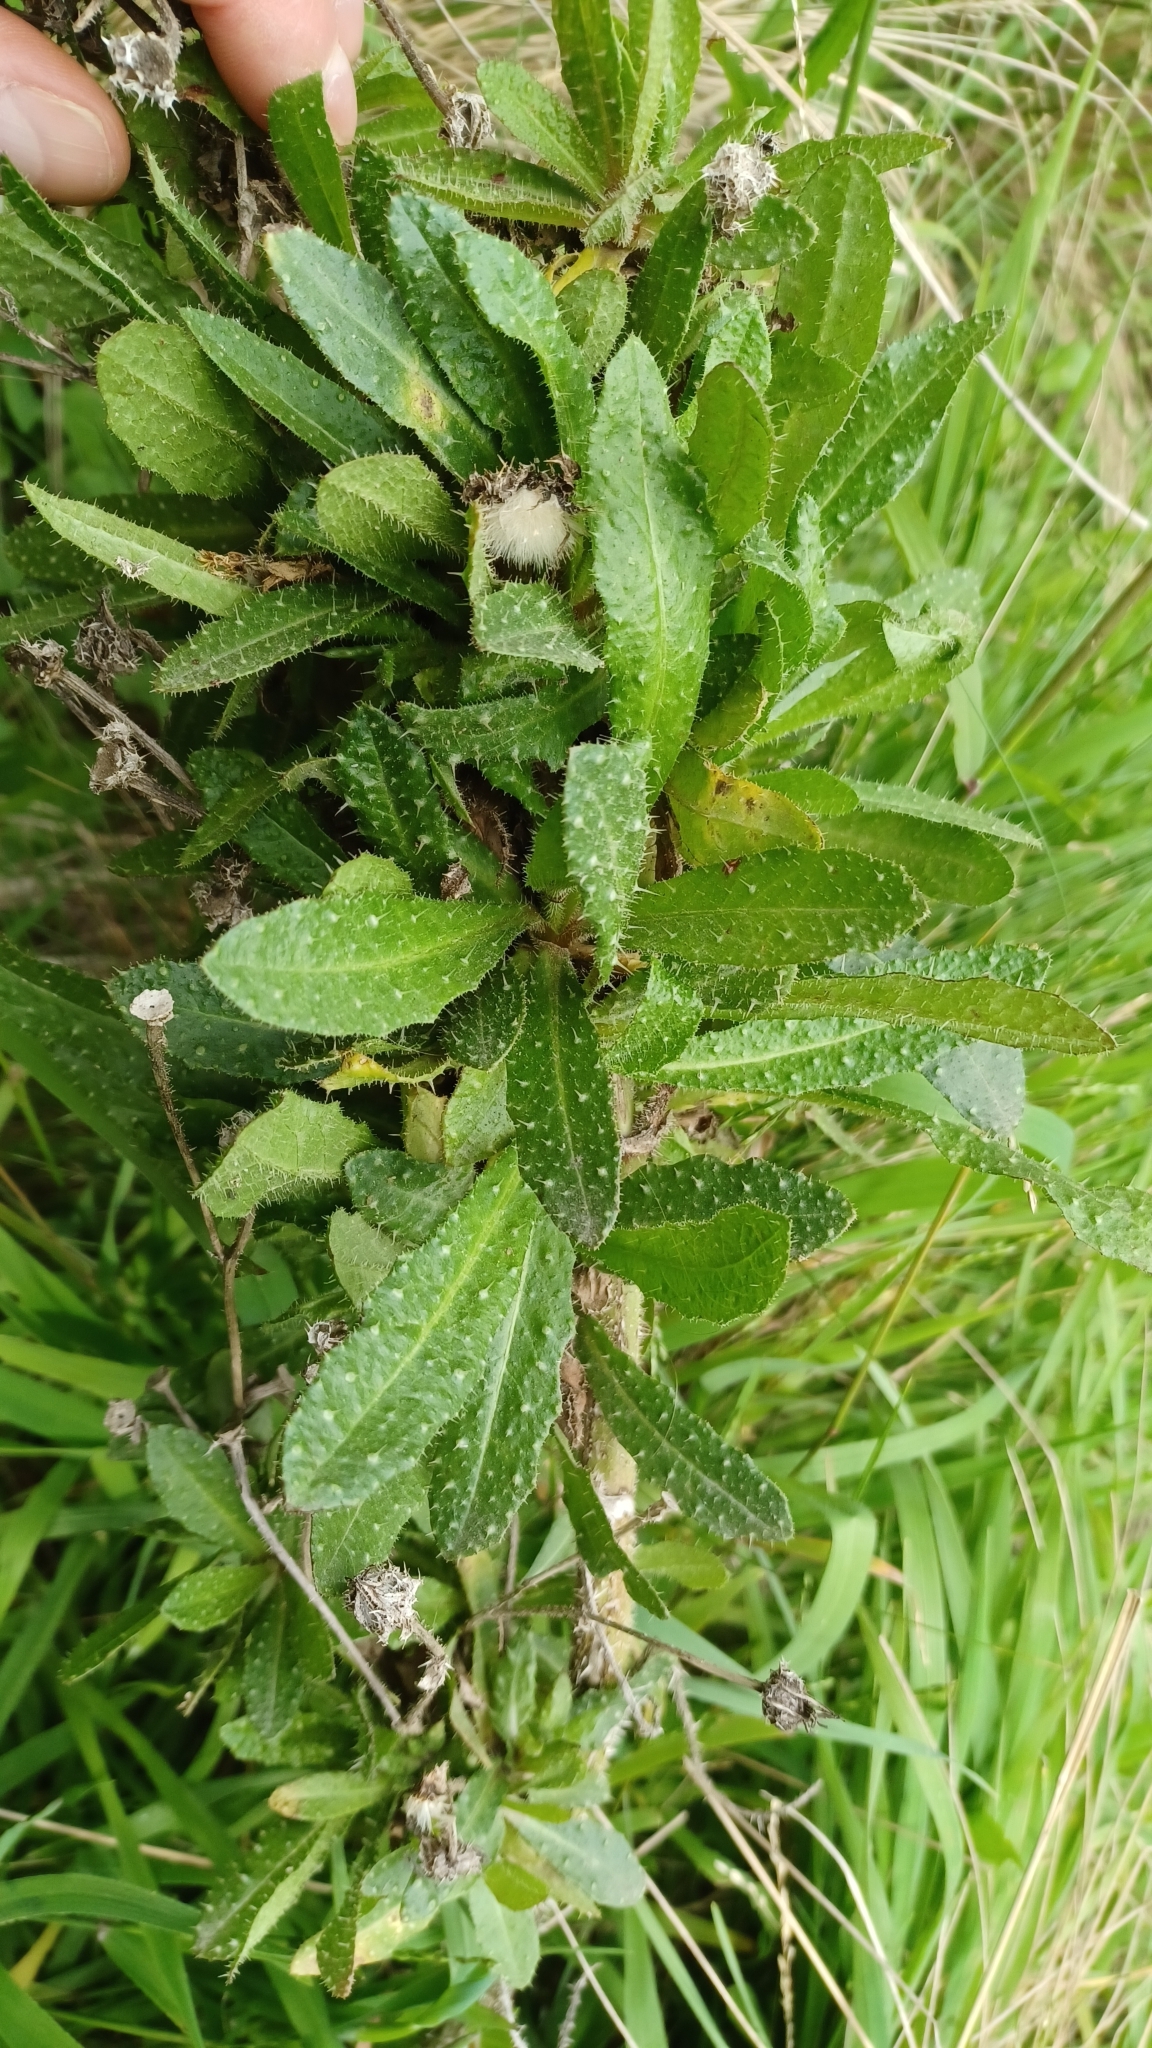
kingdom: Plantae
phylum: Tracheophyta
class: Magnoliopsida
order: Asterales
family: Asteraceae
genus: Helminthotheca
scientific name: Helminthotheca echioides
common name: Ox-tongue
